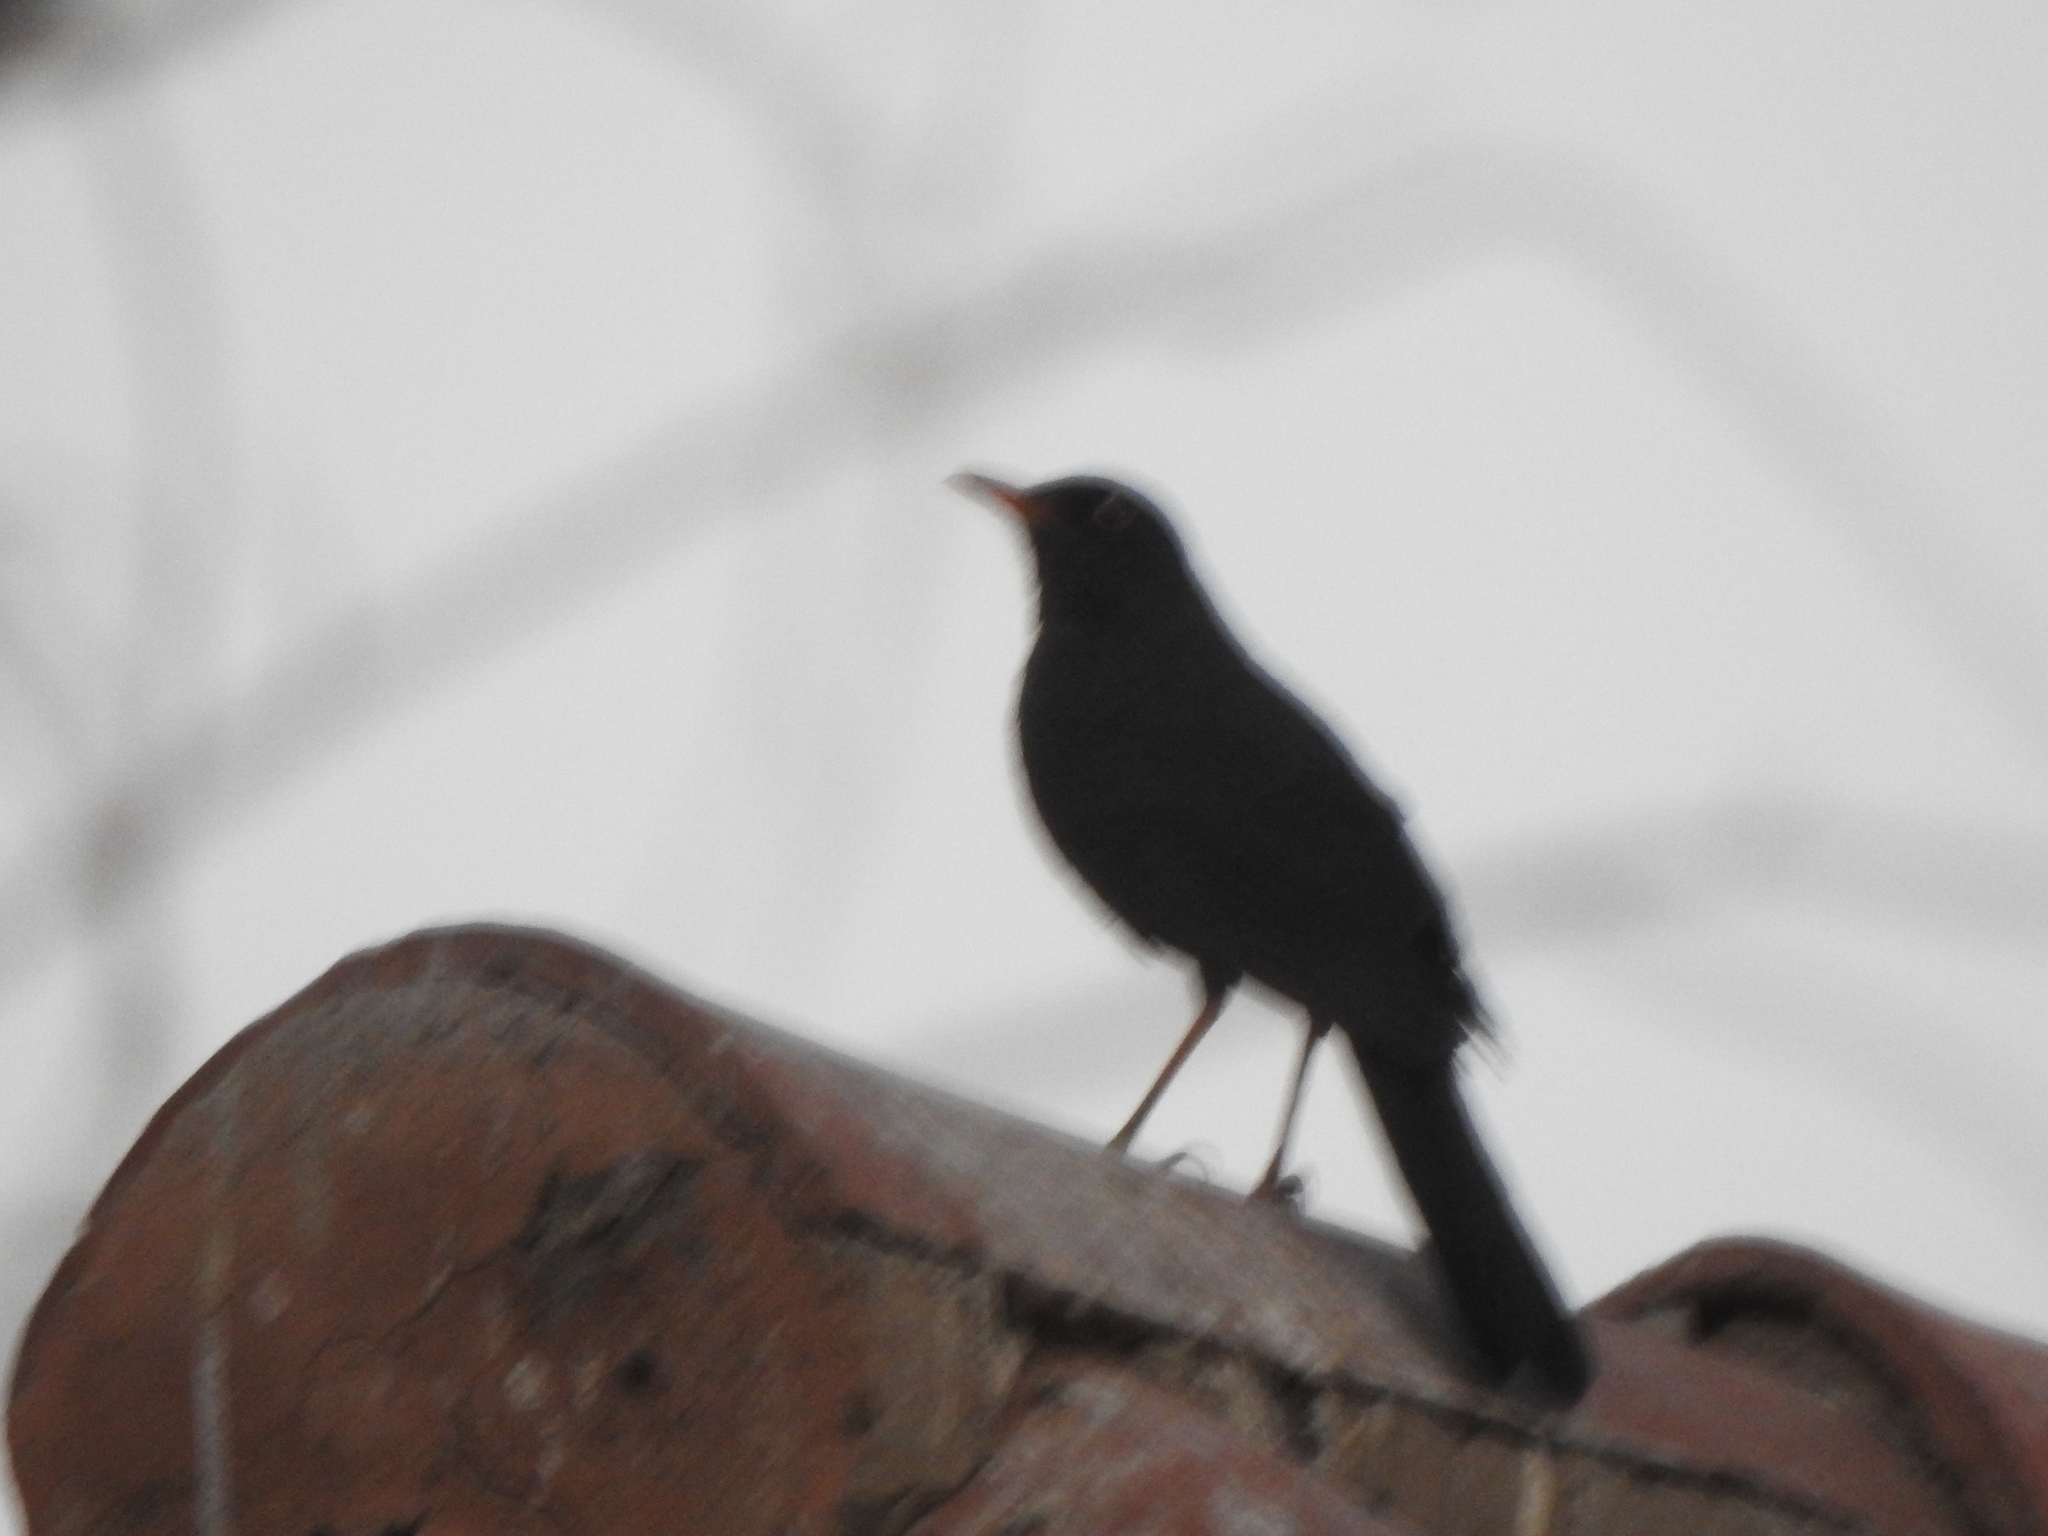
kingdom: Animalia
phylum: Chordata
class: Aves
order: Passeriformes
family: Turdidae
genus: Turdus
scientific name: Turdus chiguanco
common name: Chiguanco thrush
